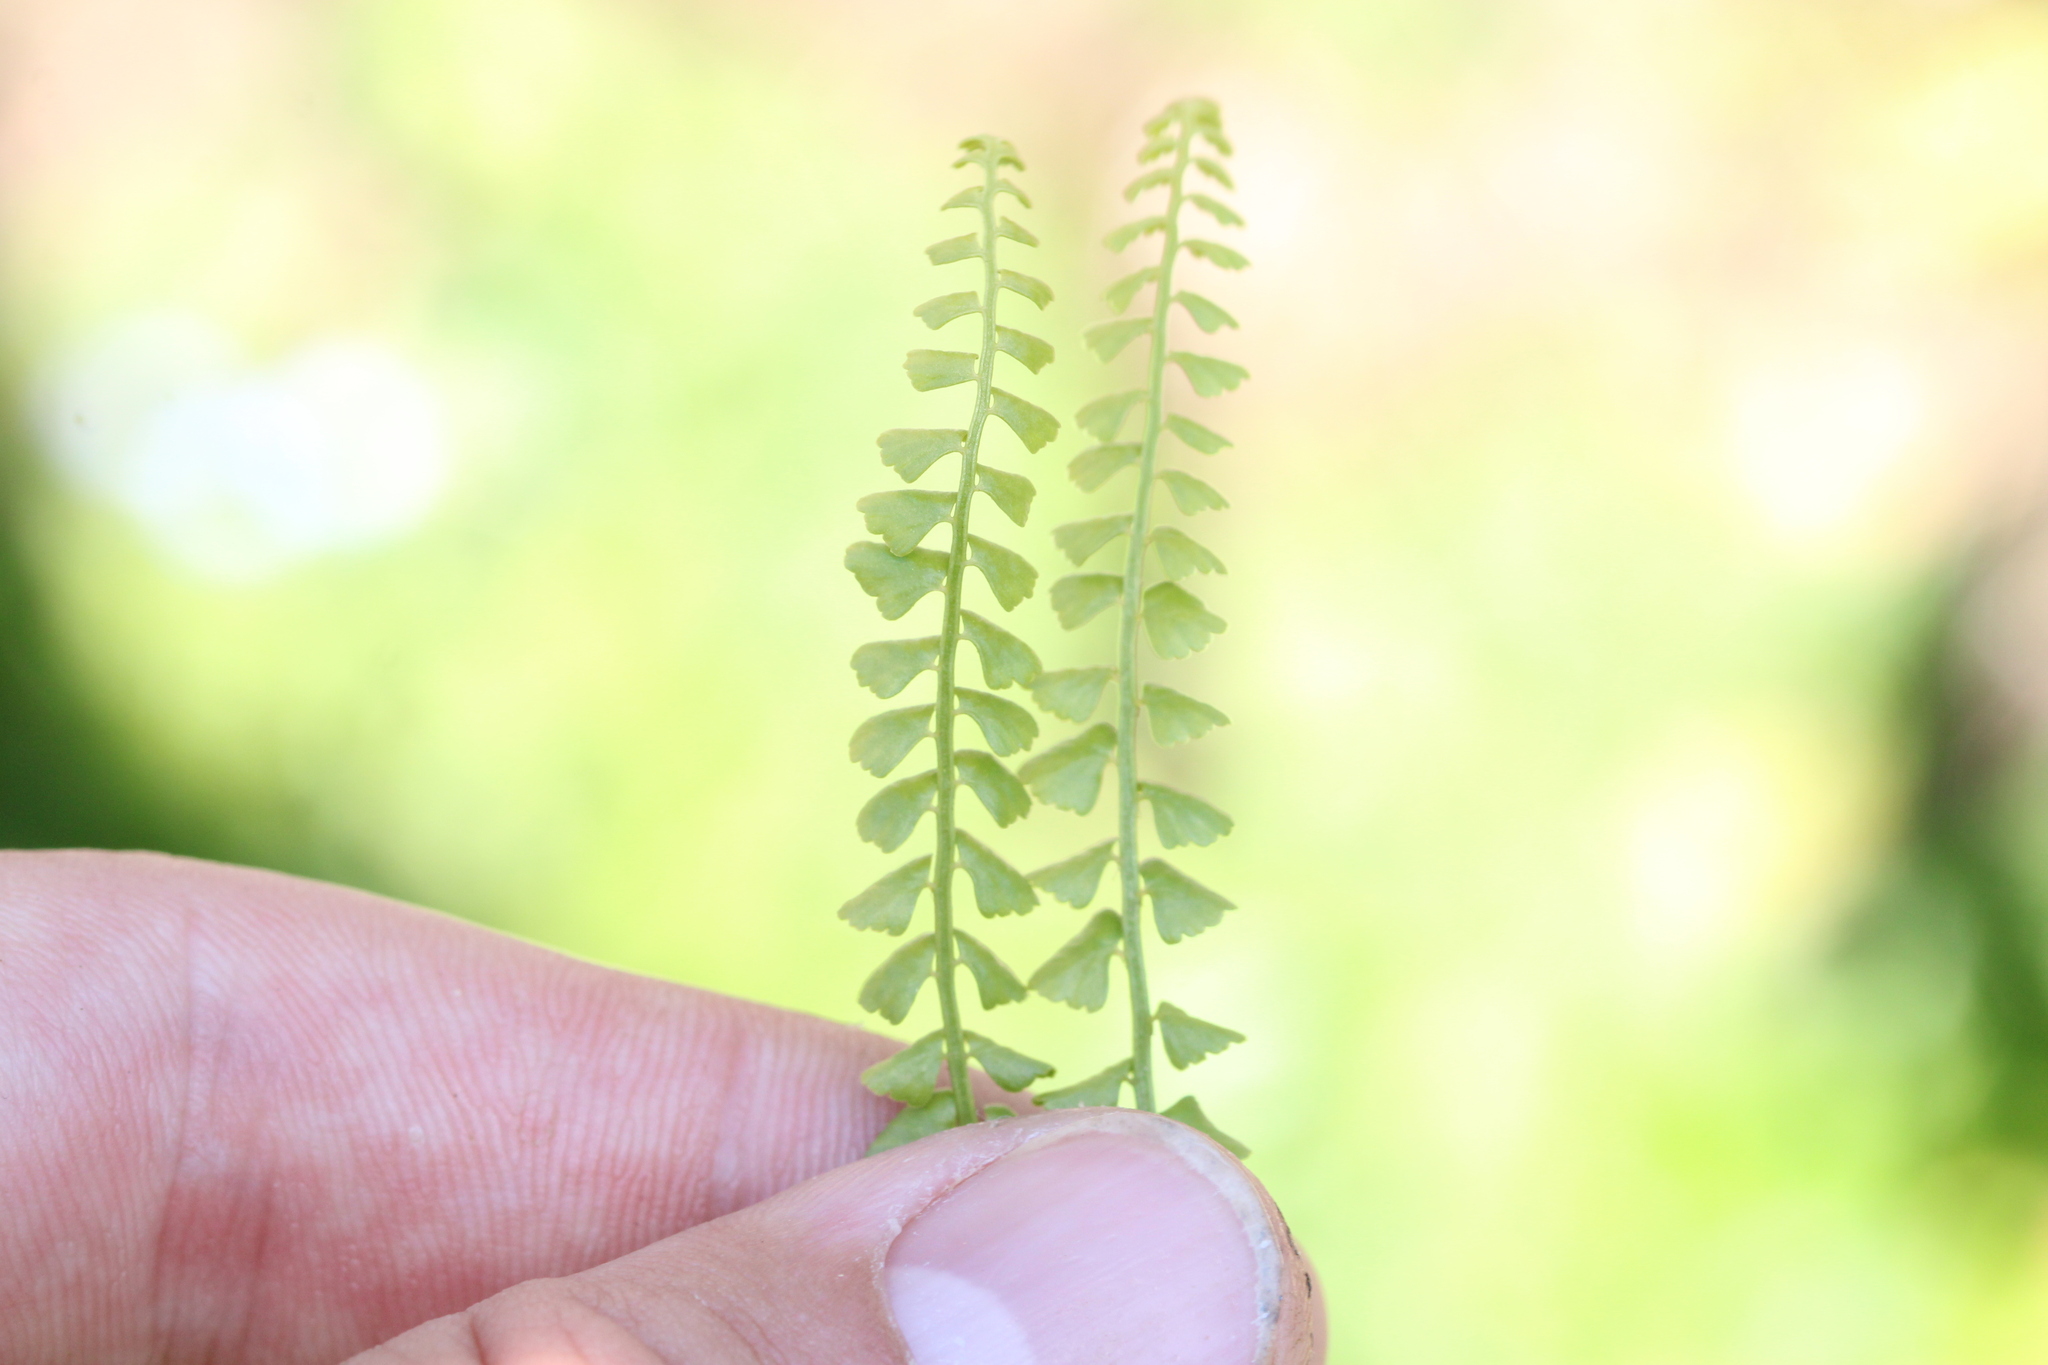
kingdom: Plantae
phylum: Tracheophyta
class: Polypodiopsida
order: Polypodiales
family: Aspleniaceae
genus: Asplenium
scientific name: Asplenium viride
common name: Green spleenwort
